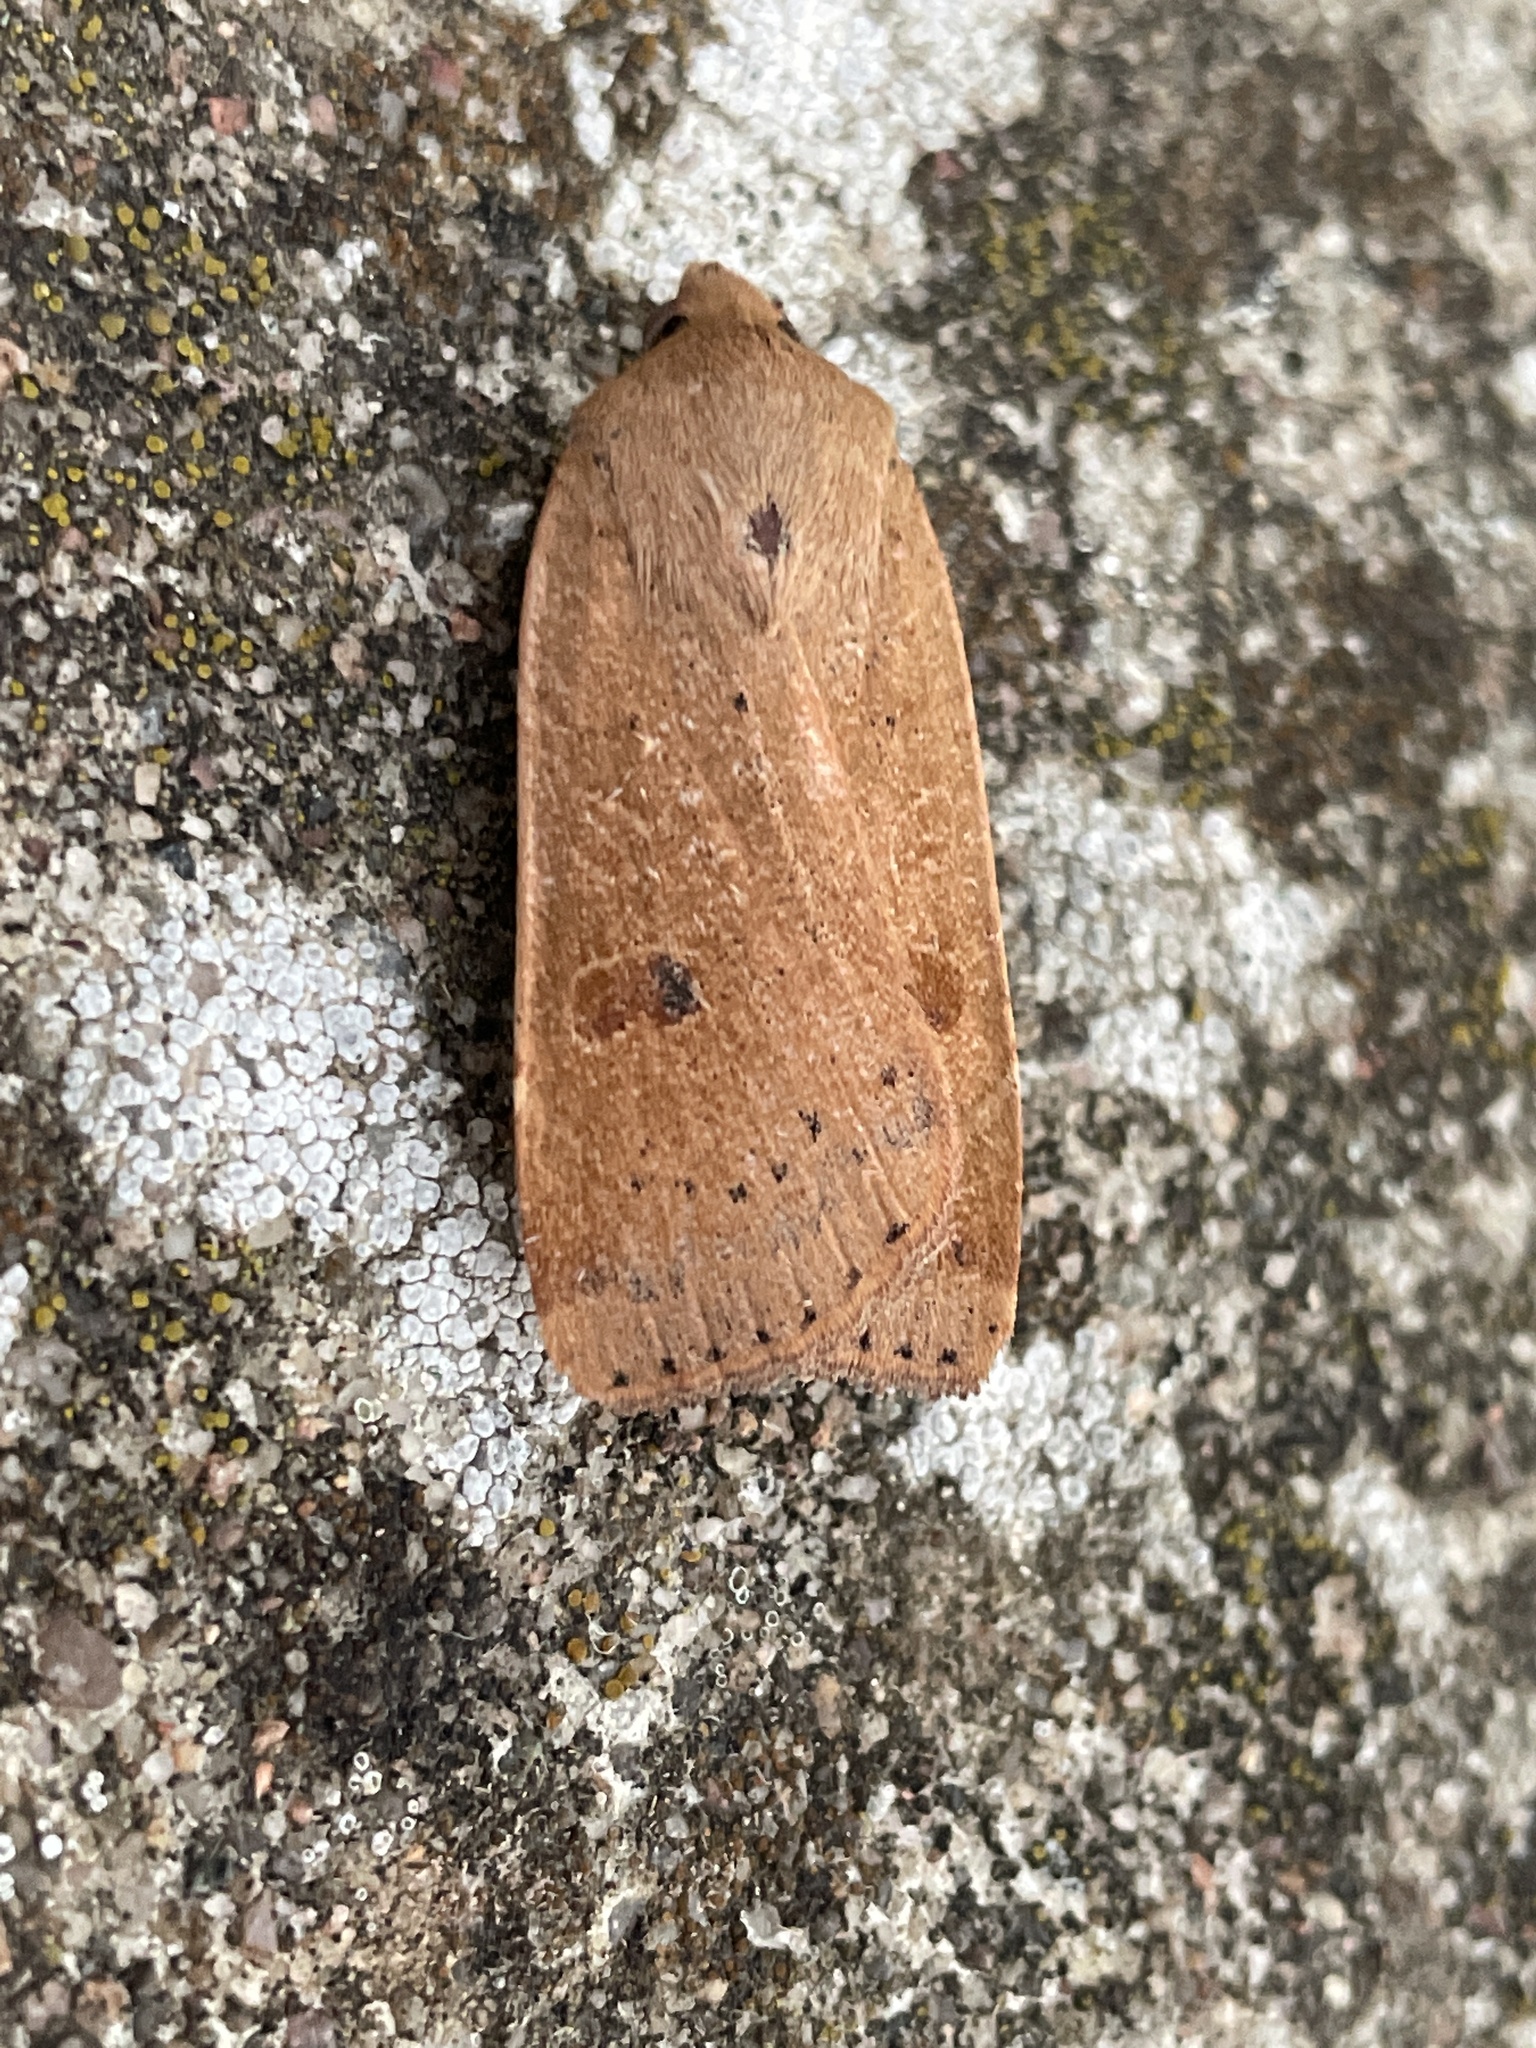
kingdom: Animalia
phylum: Arthropoda
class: Insecta
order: Lepidoptera
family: Noctuidae
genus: Noctua
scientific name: Noctua comes
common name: Lesser yellow underwing
